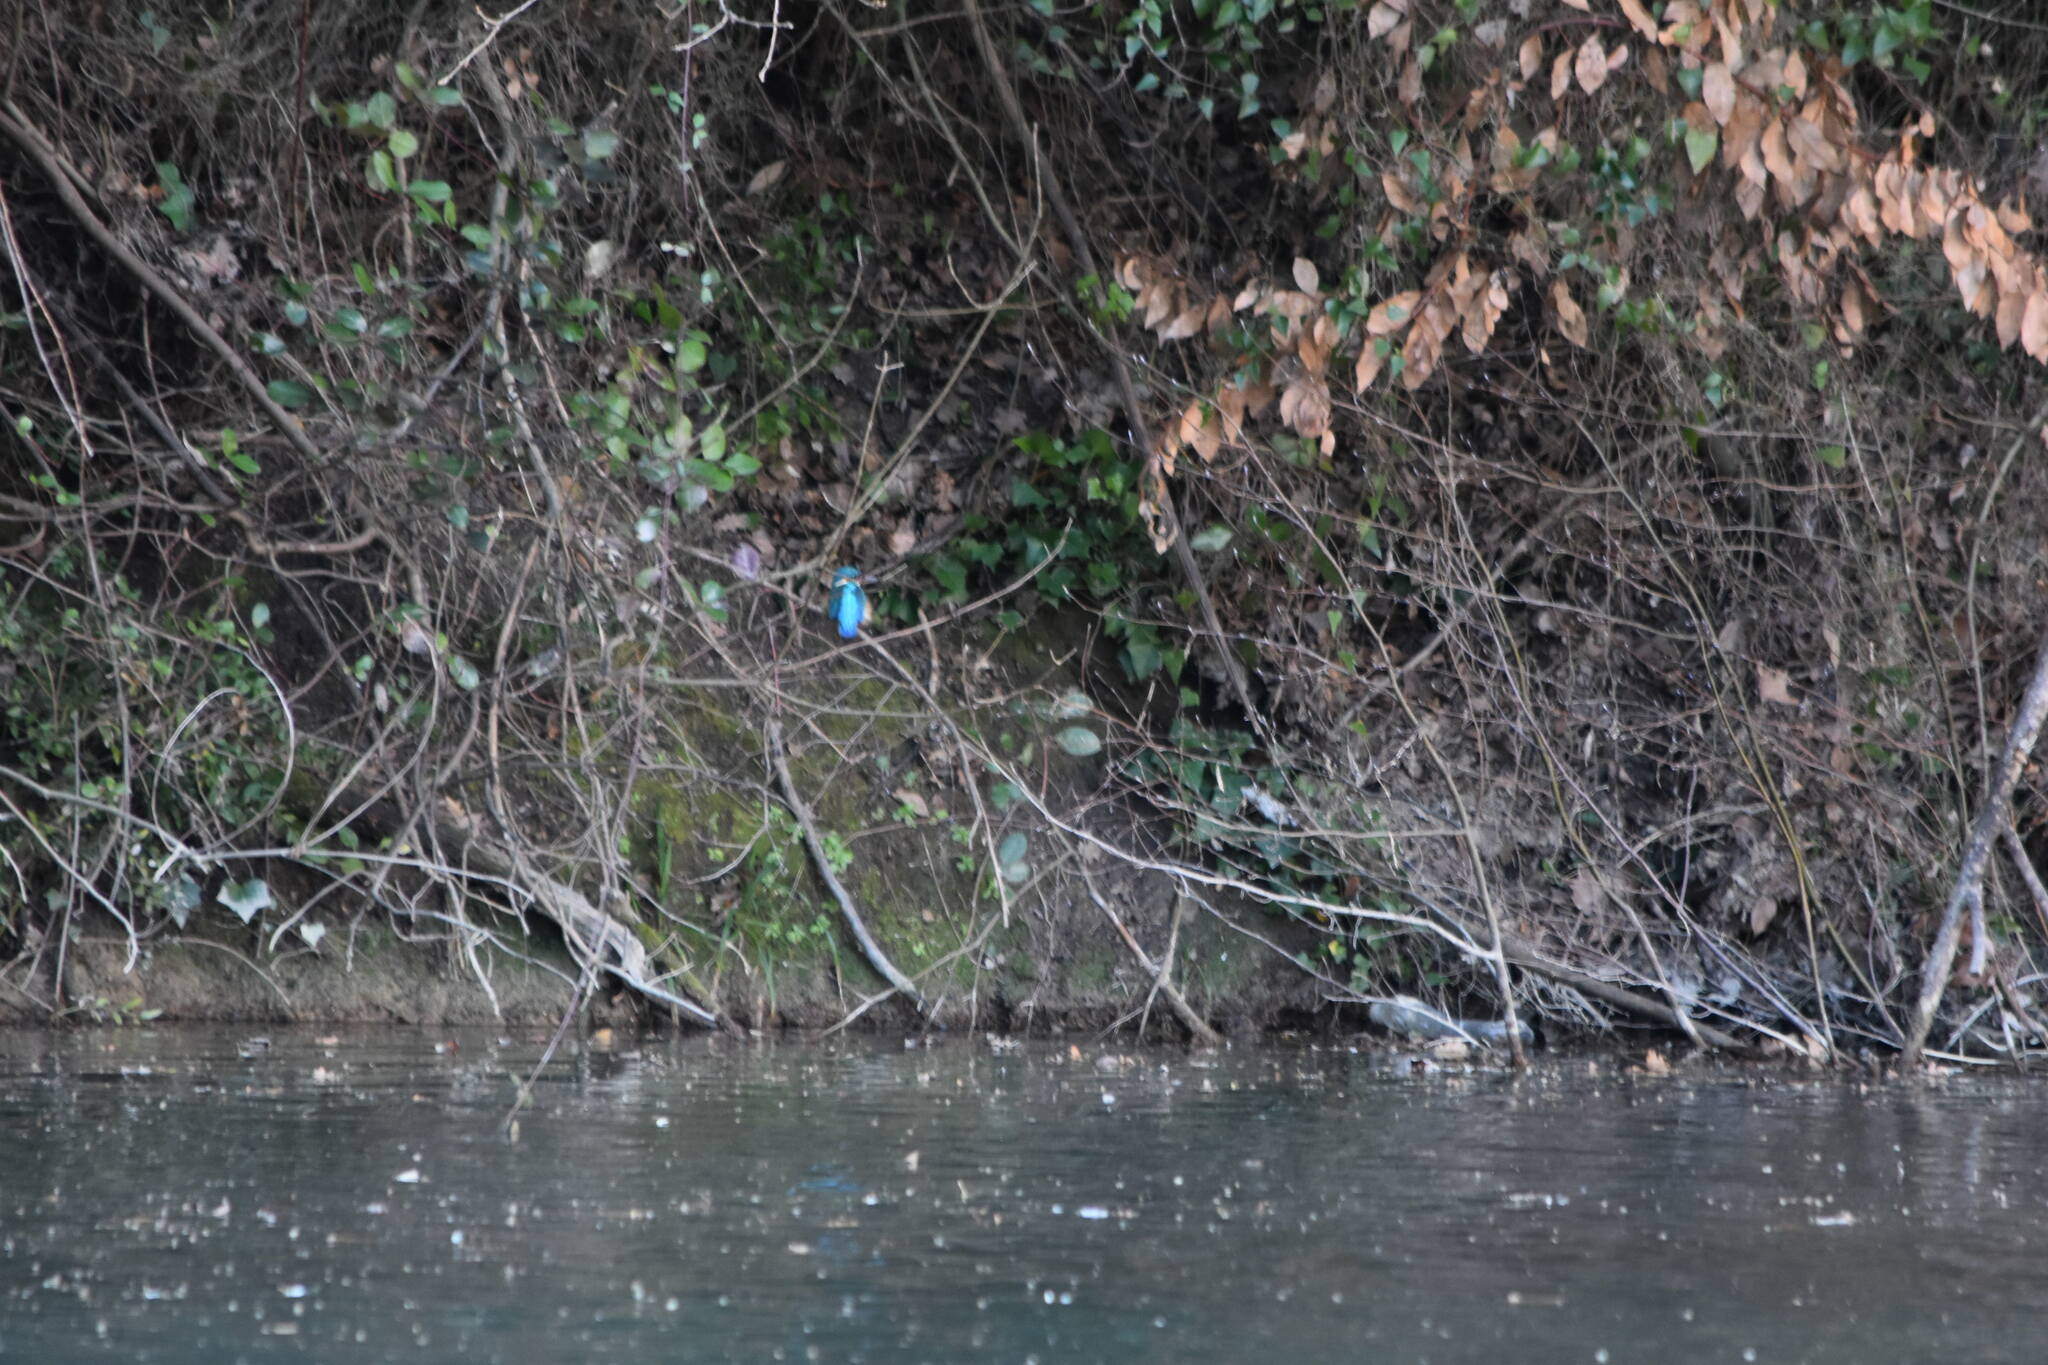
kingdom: Animalia
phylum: Chordata
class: Aves
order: Coraciiformes
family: Alcedinidae
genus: Alcedo
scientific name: Alcedo atthis
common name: Common kingfisher
